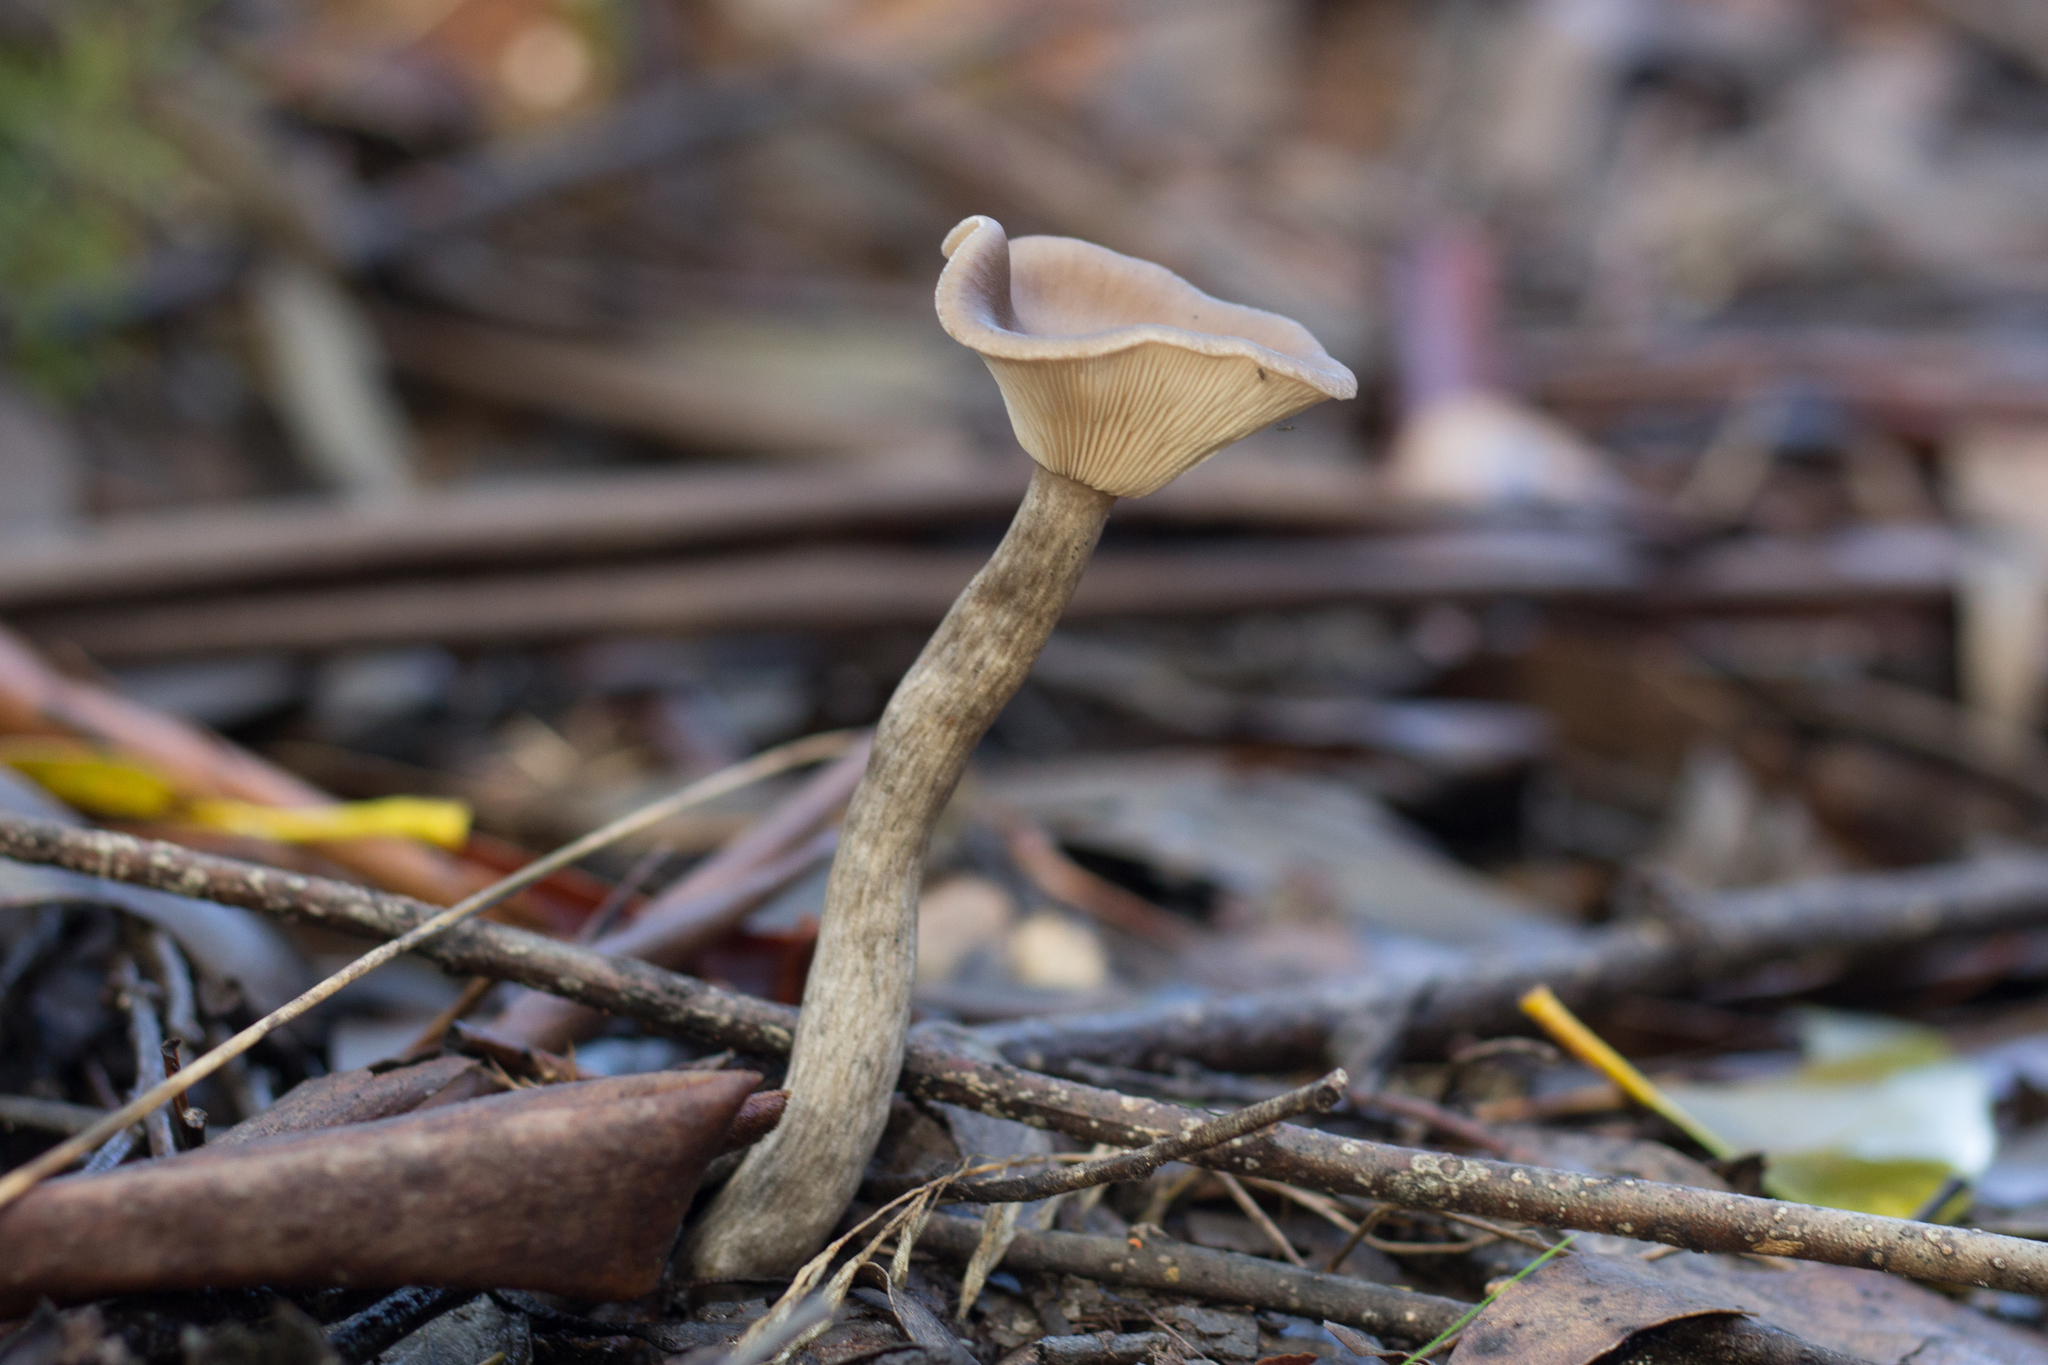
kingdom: Fungi
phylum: Basidiomycota
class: Agaricomycetes
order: Agaricales
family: Pseudoclitocybaceae
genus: Pseudoclitocybe
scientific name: Pseudoclitocybe cyathiformis
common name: Goblet
